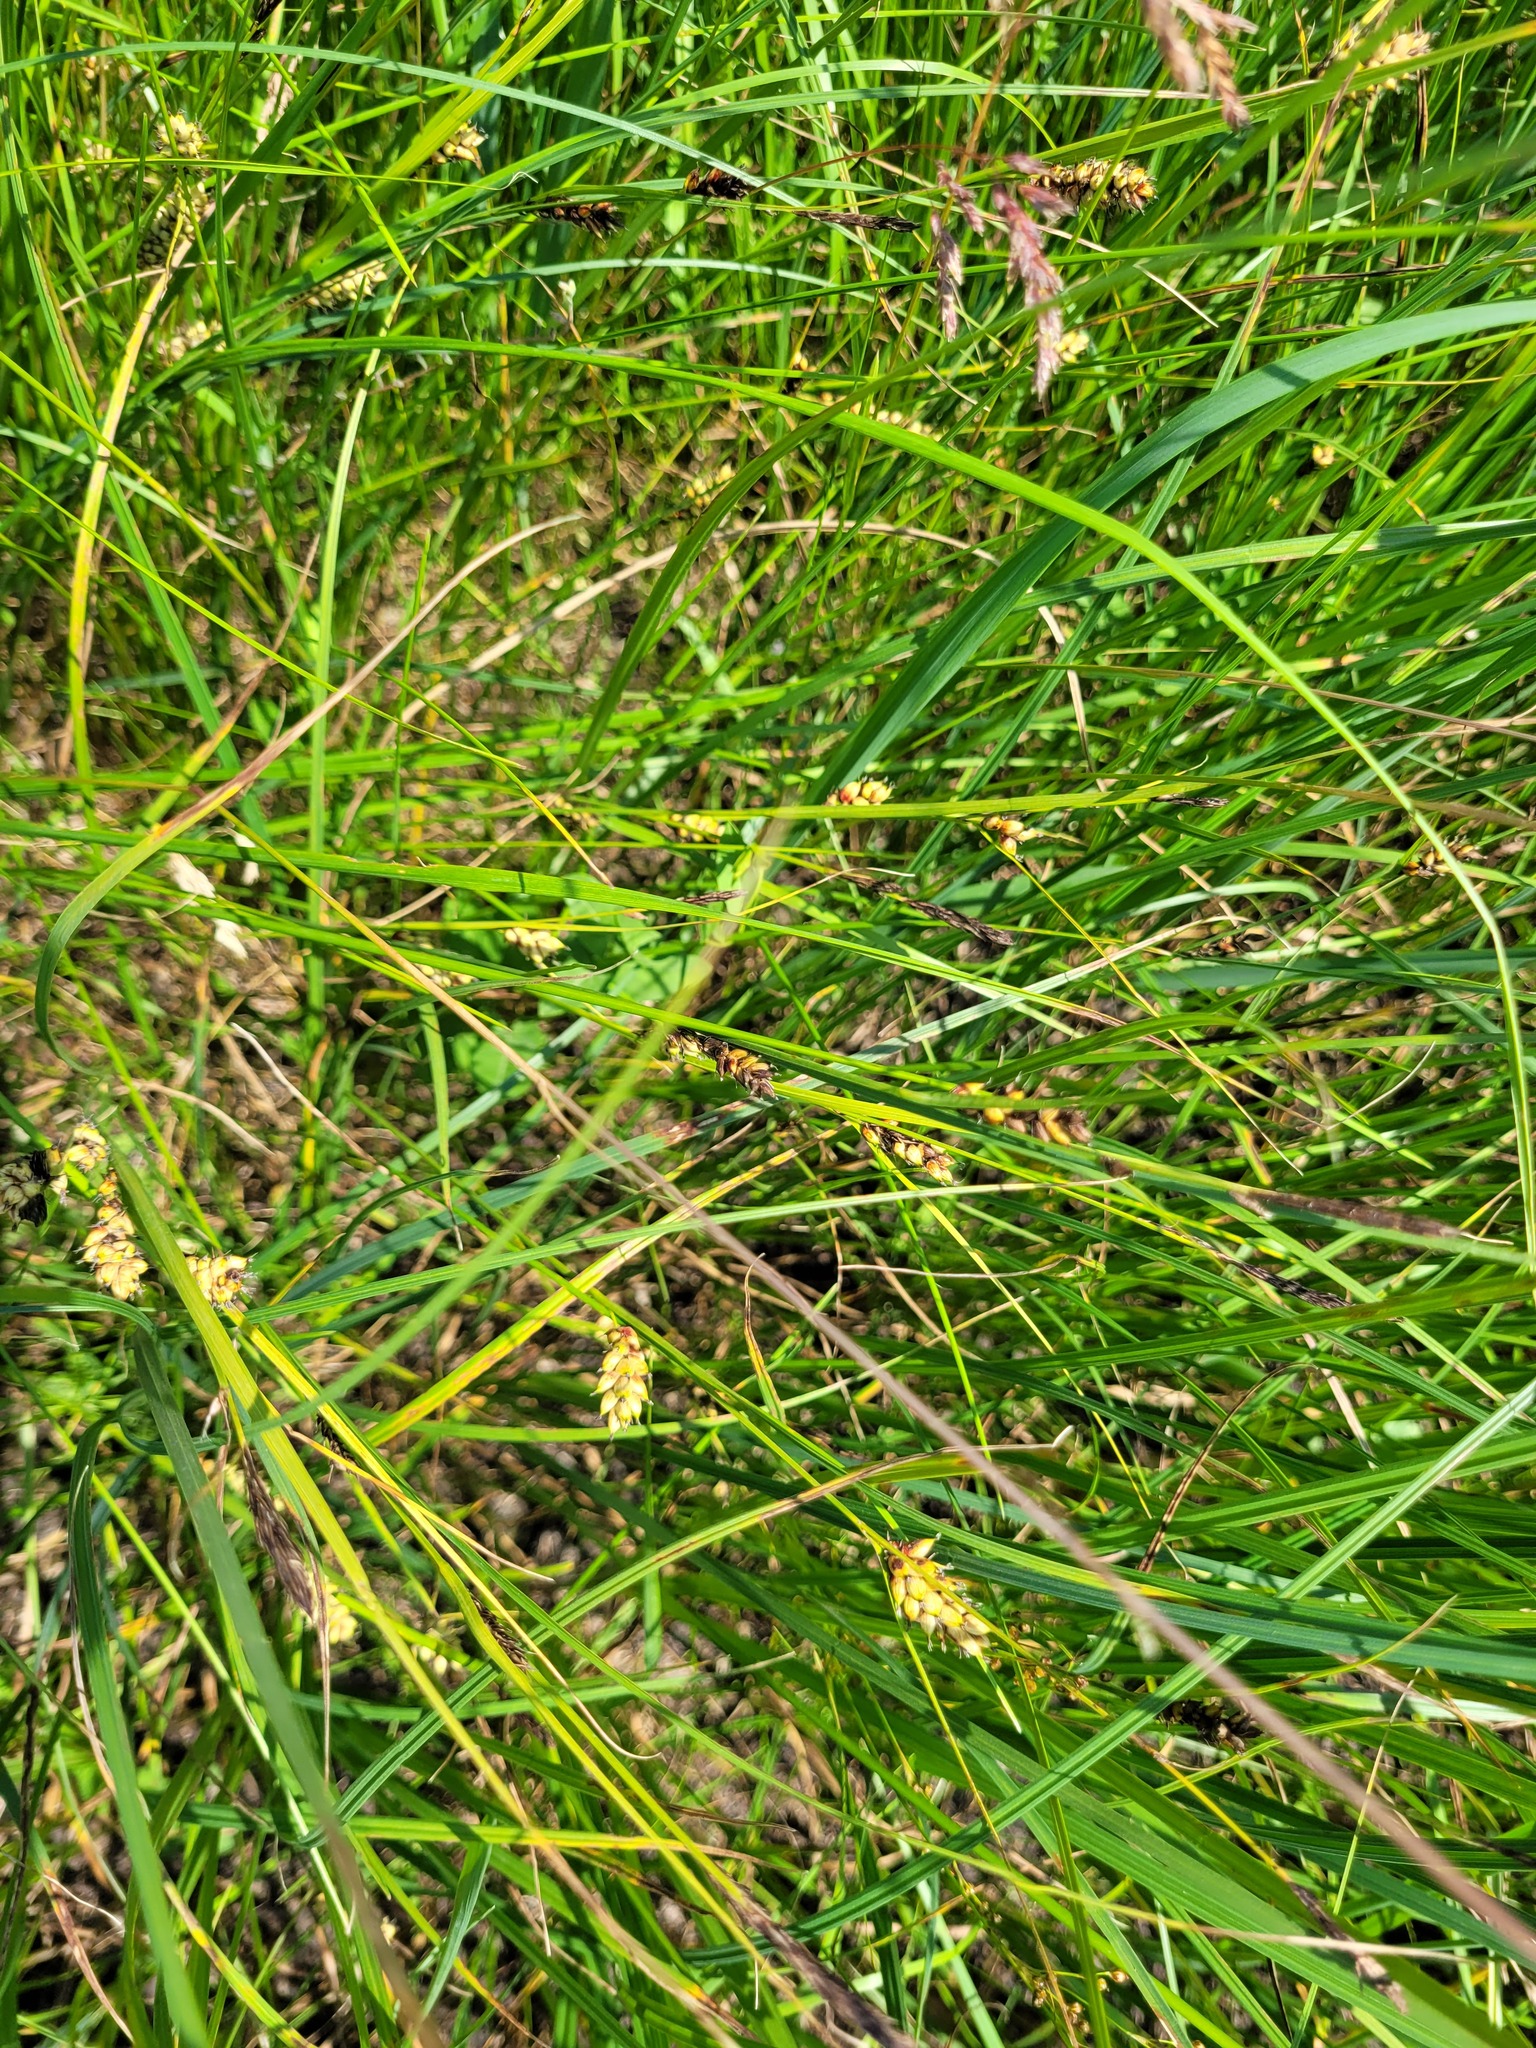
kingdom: Plantae
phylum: Tracheophyta
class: Liliopsida
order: Poales
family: Cyperaceae
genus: Carex
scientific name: Carex melanostachya
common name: Black-spiked sedge
